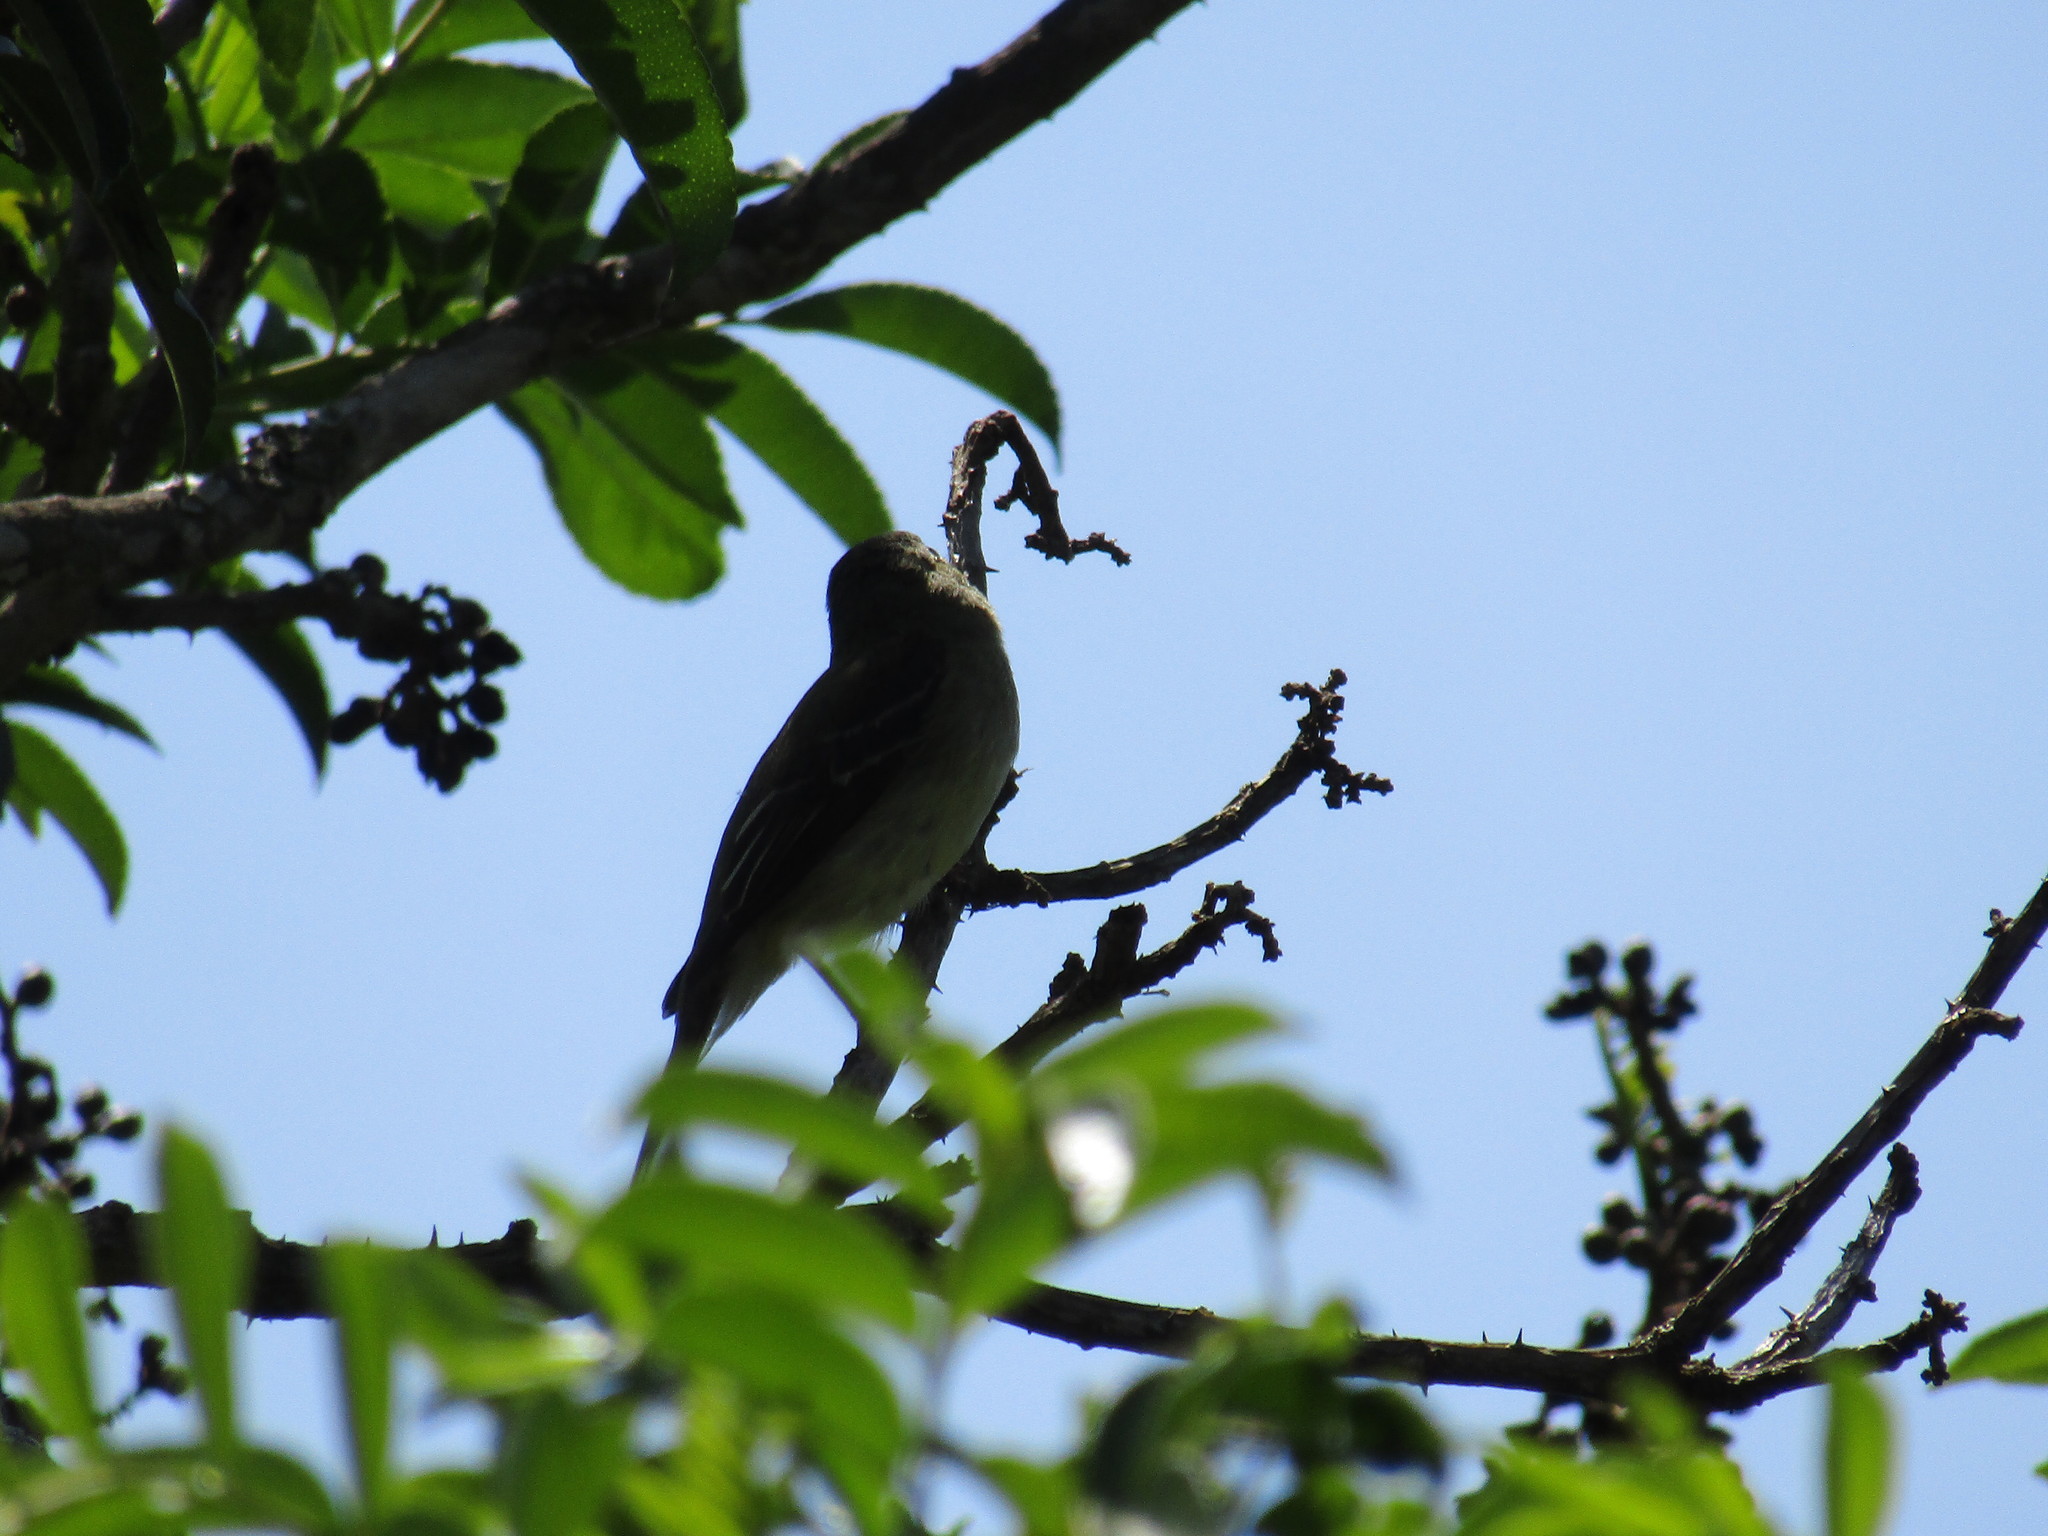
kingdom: Animalia
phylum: Chordata
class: Aves
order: Passeriformes
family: Tyrannidae
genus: Empidonax
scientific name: Empidonax
